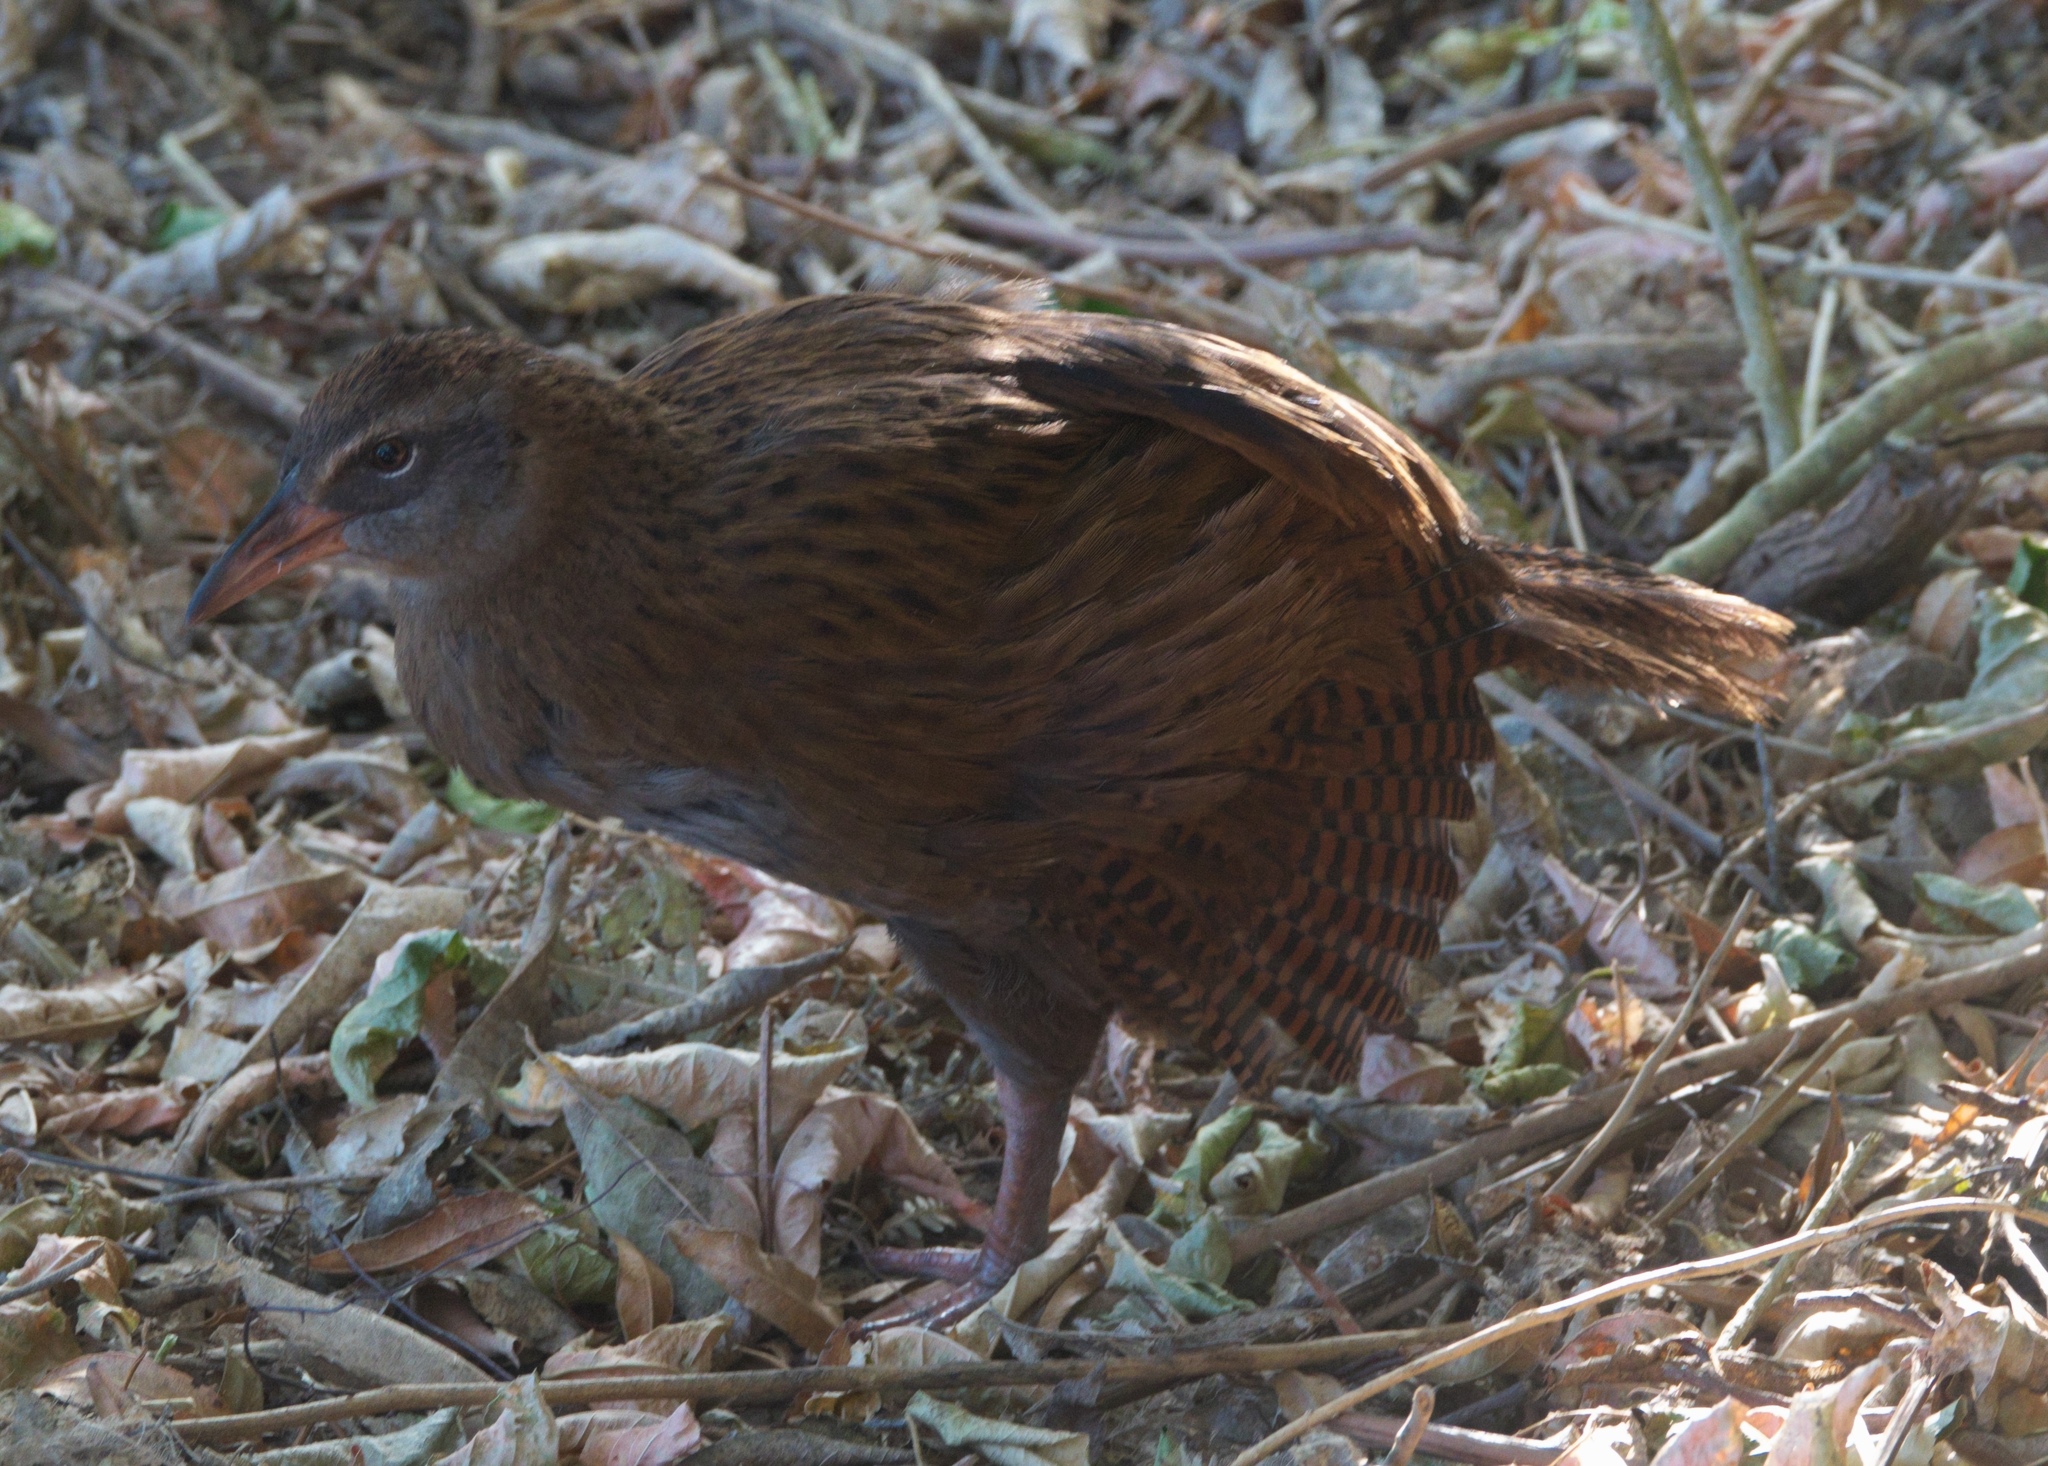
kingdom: Animalia
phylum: Chordata
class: Aves
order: Gruiformes
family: Rallidae
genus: Gallirallus
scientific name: Gallirallus australis
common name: Weka
